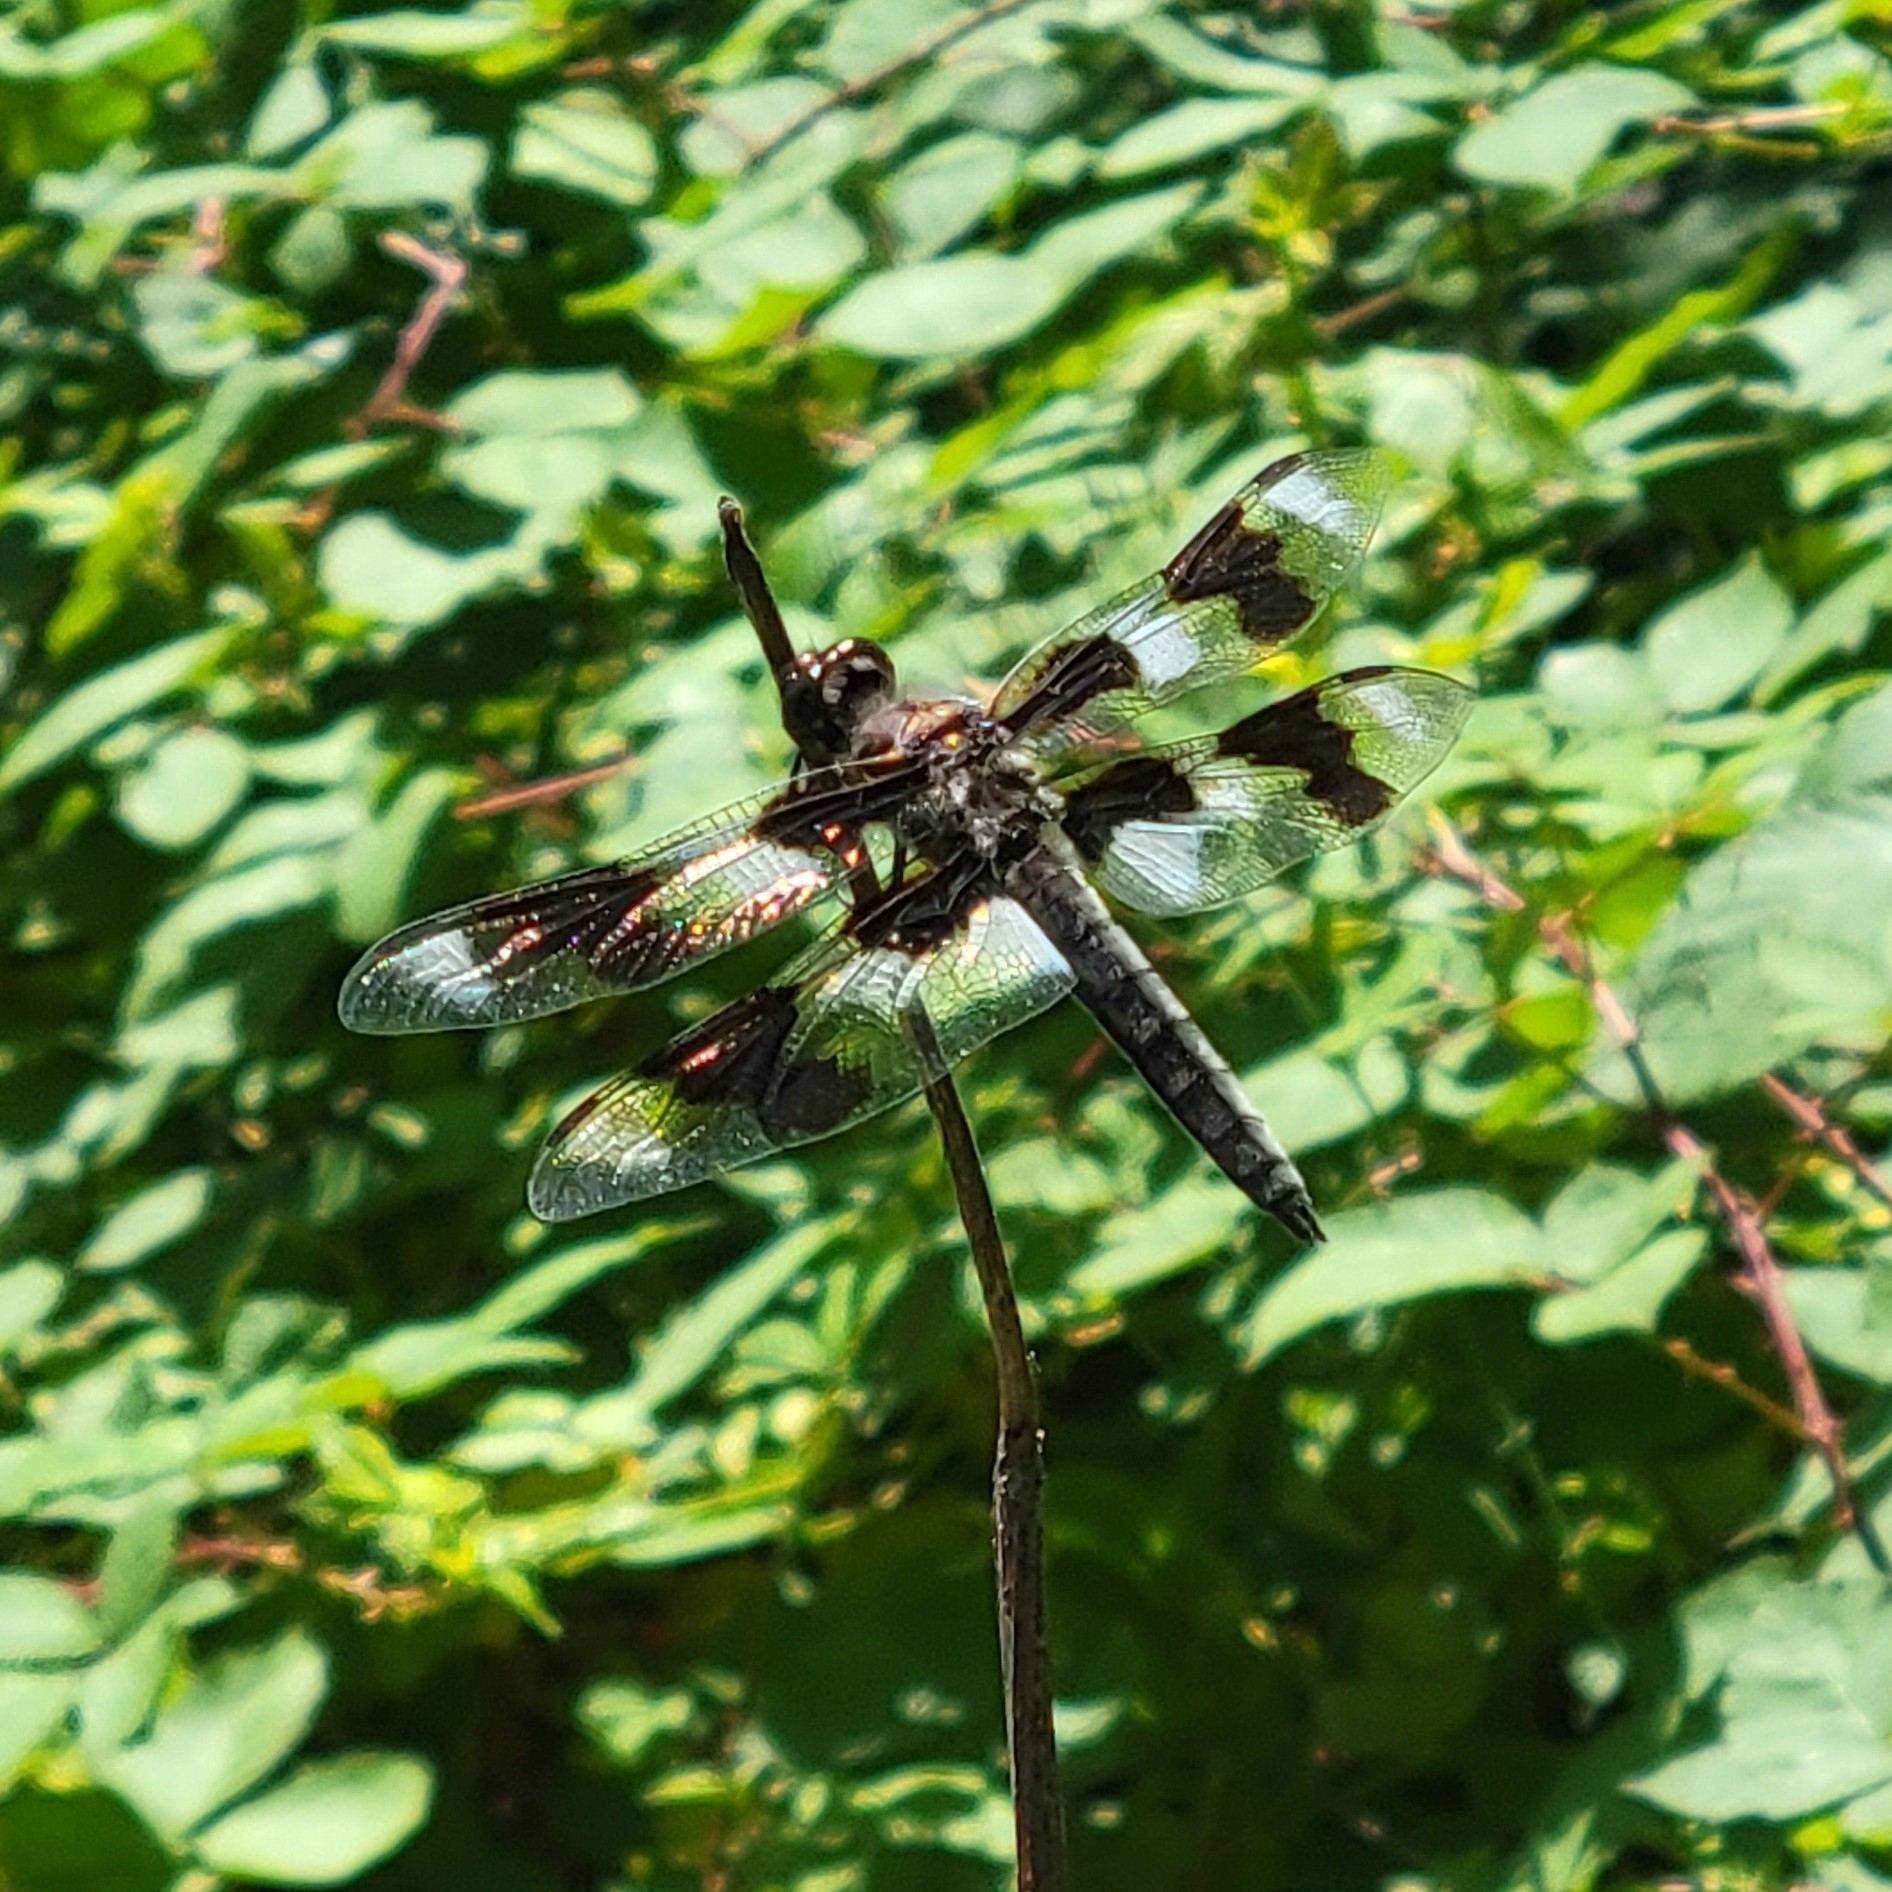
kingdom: Animalia
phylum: Arthropoda
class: Insecta
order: Odonata
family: Libellulidae
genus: Libellula
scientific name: Libellula forensis
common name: Eight-spotted skimmer
